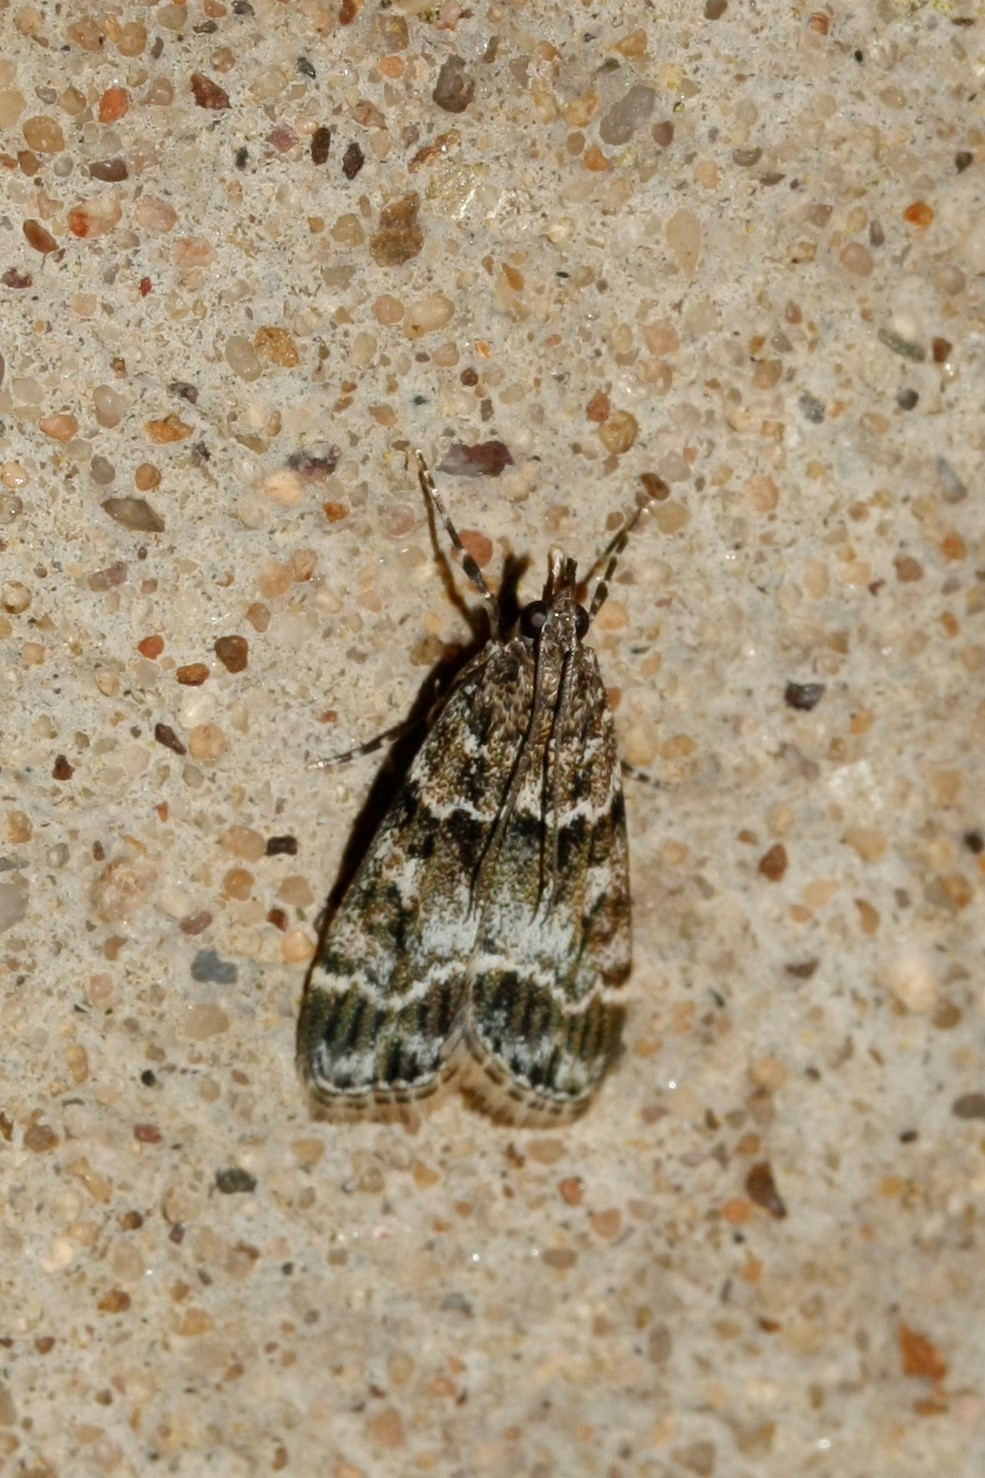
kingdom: Animalia
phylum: Arthropoda
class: Insecta
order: Lepidoptera
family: Crambidae
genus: Eudonia
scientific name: Eudonia mercurella
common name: Small grey
